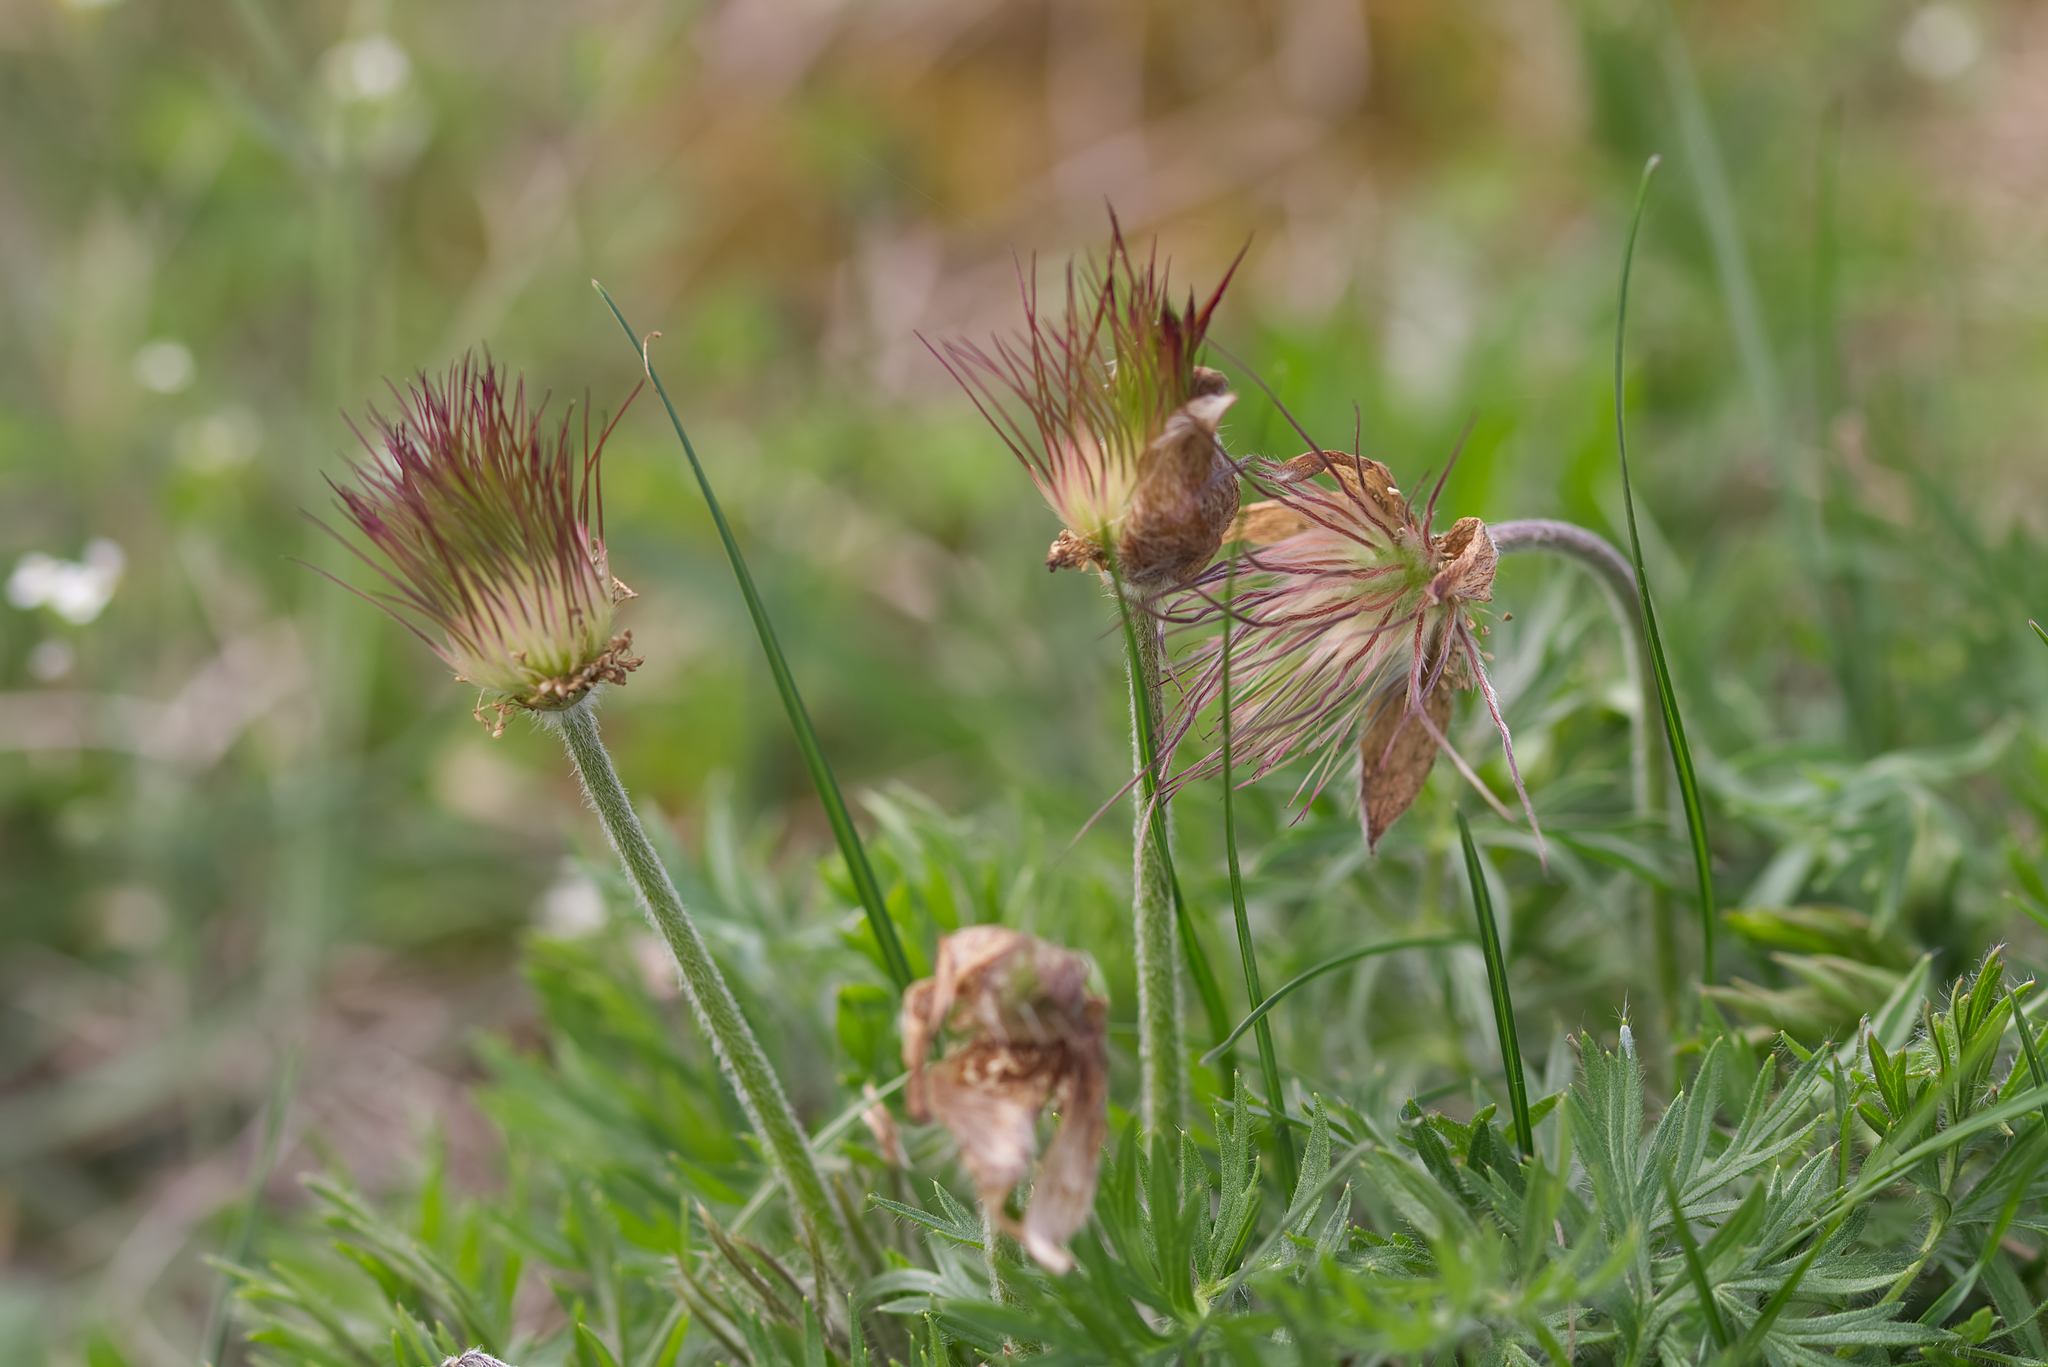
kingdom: Plantae
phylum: Tracheophyta
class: Magnoliopsida
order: Ranunculales
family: Ranunculaceae
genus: Pulsatilla
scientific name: Pulsatilla grandis
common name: Greater pasque flower
